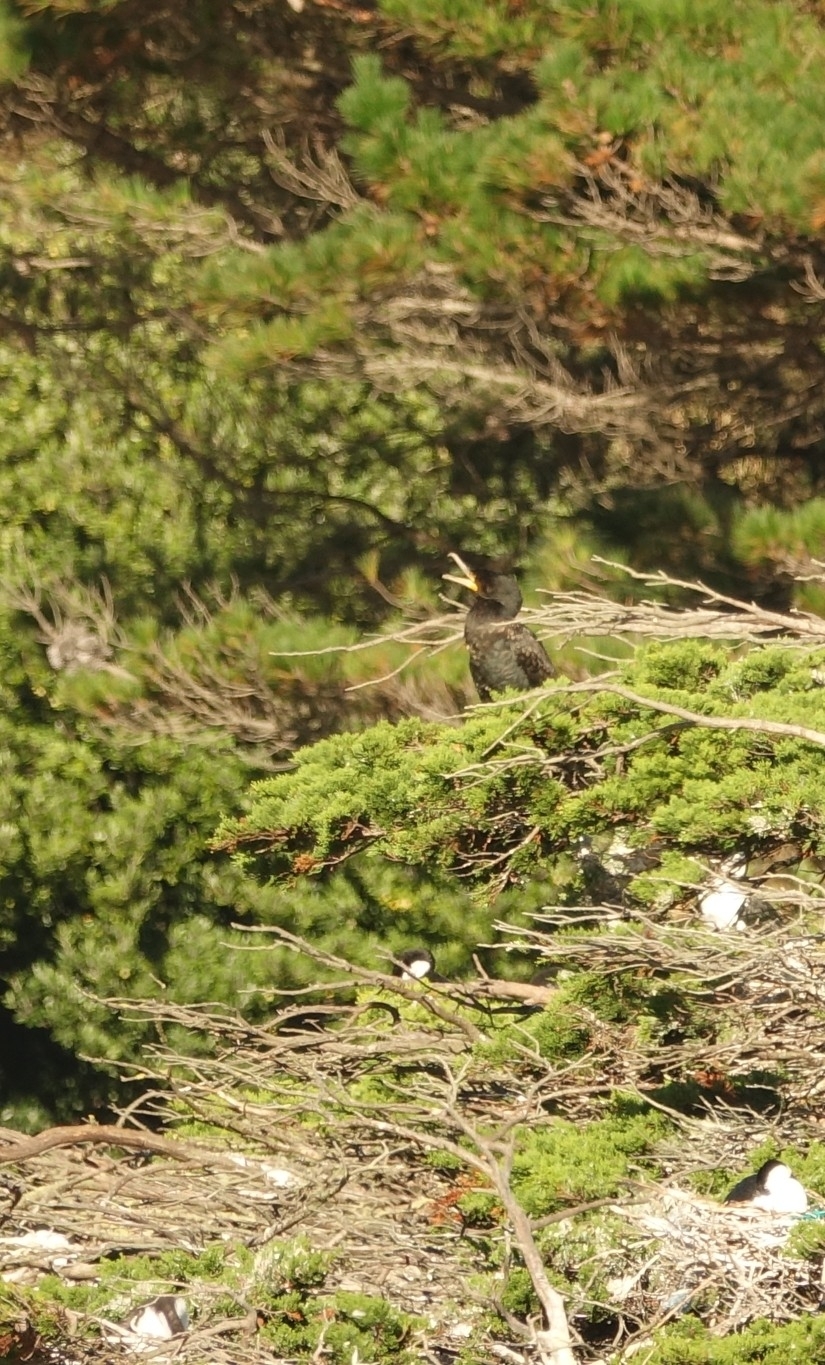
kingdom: Animalia
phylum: Chordata
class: Aves
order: Suliformes
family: Phalacrocoracidae
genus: Phalacrocorax
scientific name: Phalacrocorax carbo
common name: Great cormorant
